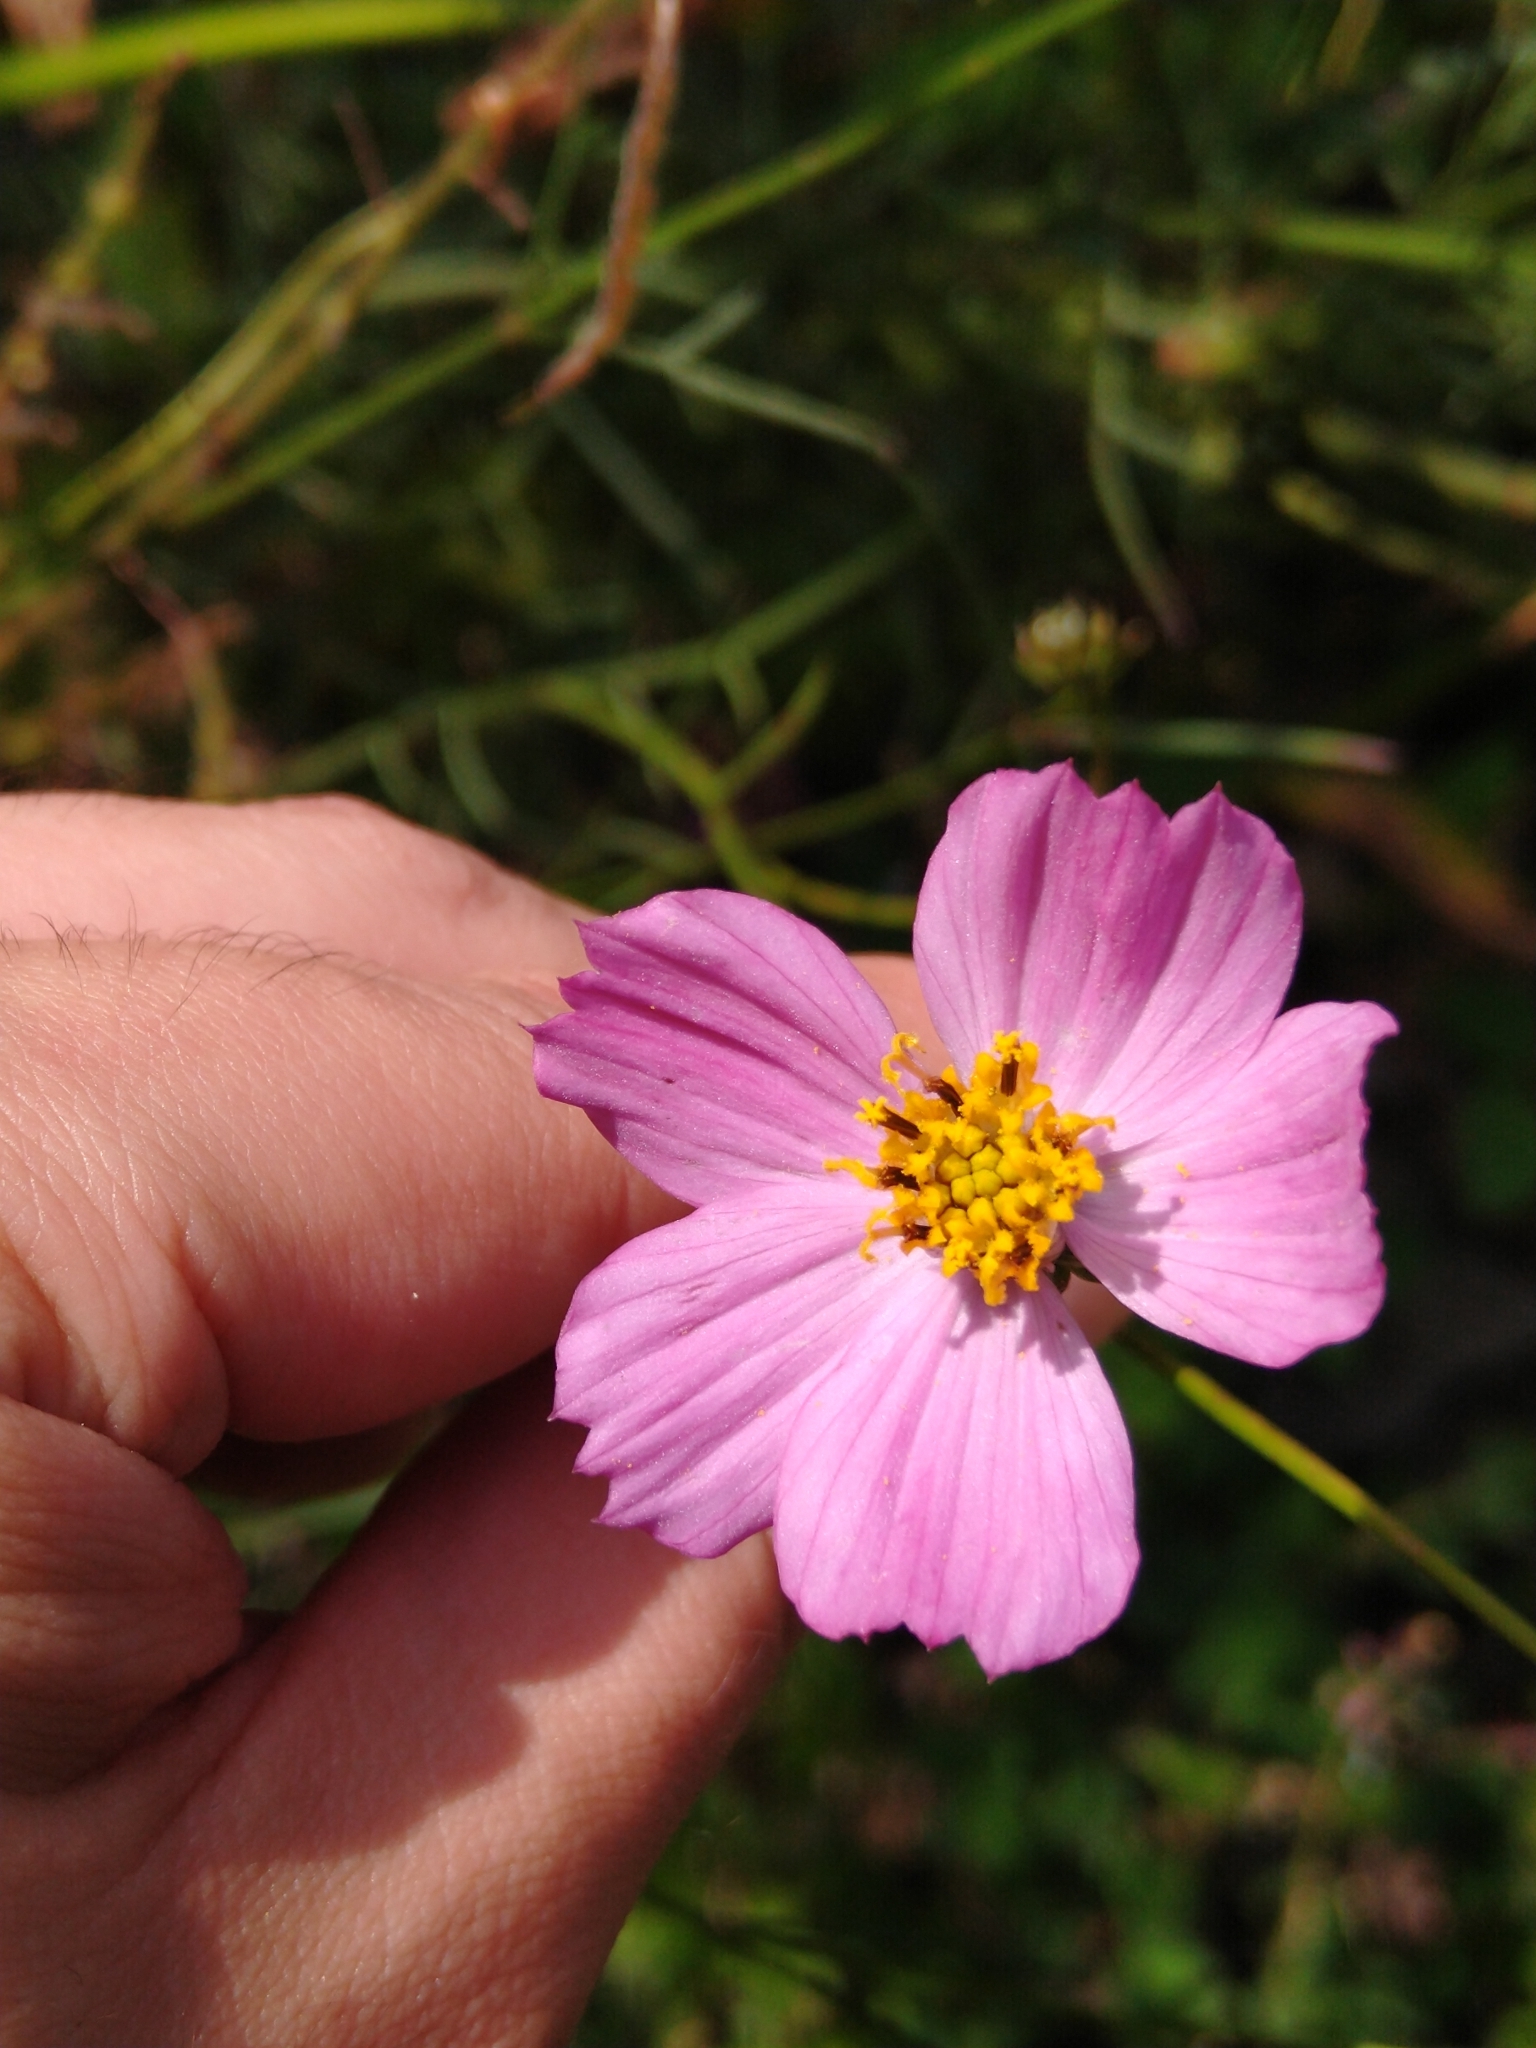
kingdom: Plantae
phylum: Tracheophyta
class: Magnoliopsida
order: Asterales
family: Asteraceae
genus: Cosmos
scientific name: Cosmos crithmifolius
